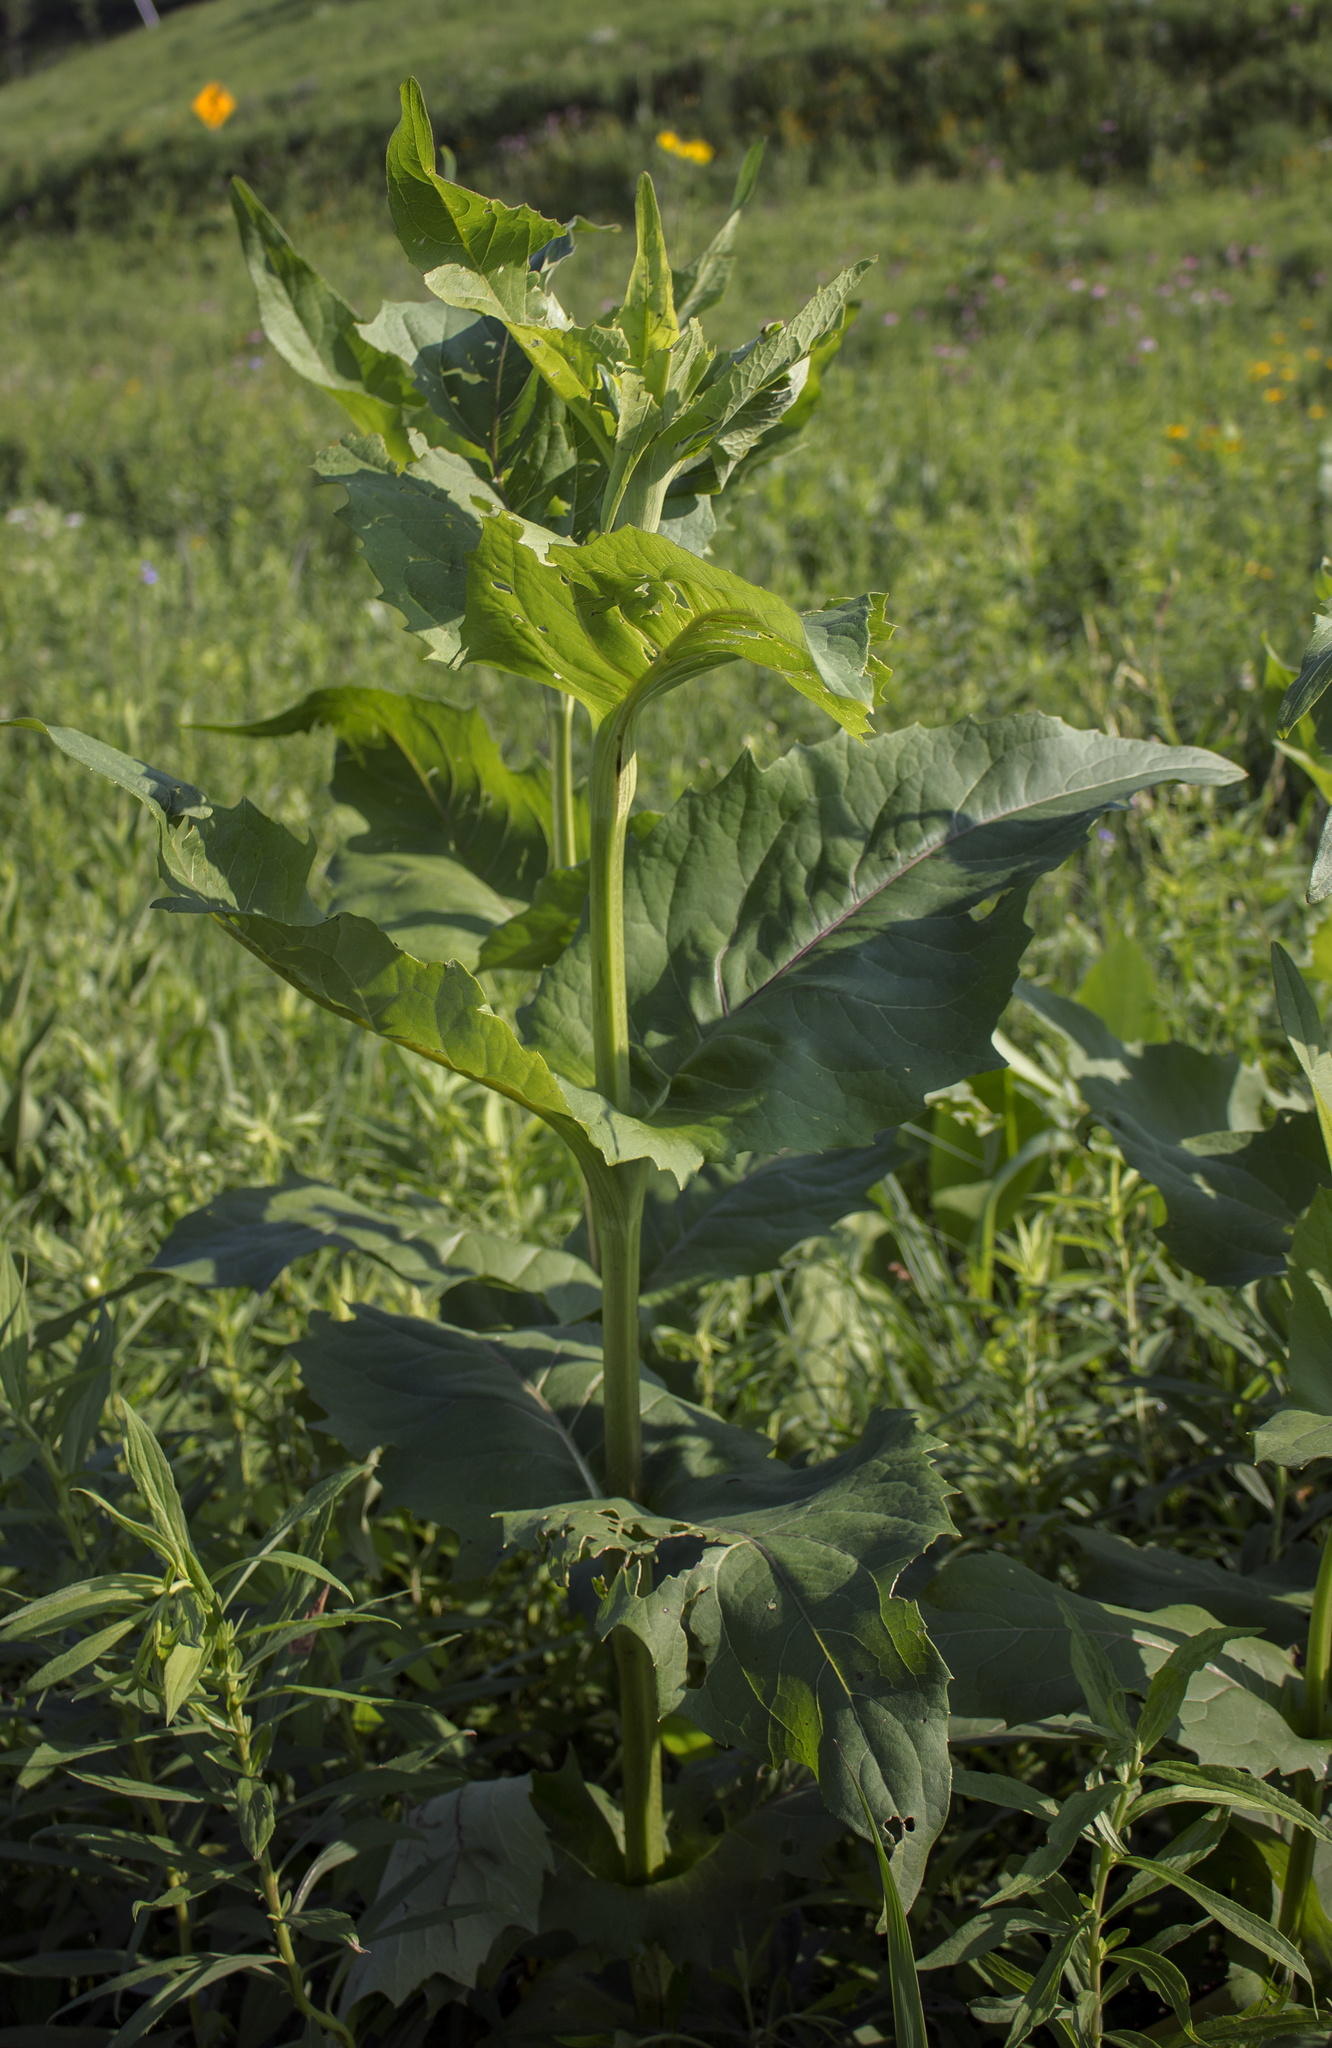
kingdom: Plantae
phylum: Tracheophyta
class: Magnoliopsida
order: Asterales
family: Asteraceae
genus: Silphium
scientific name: Silphium perfoliatum
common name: Cup-plant
